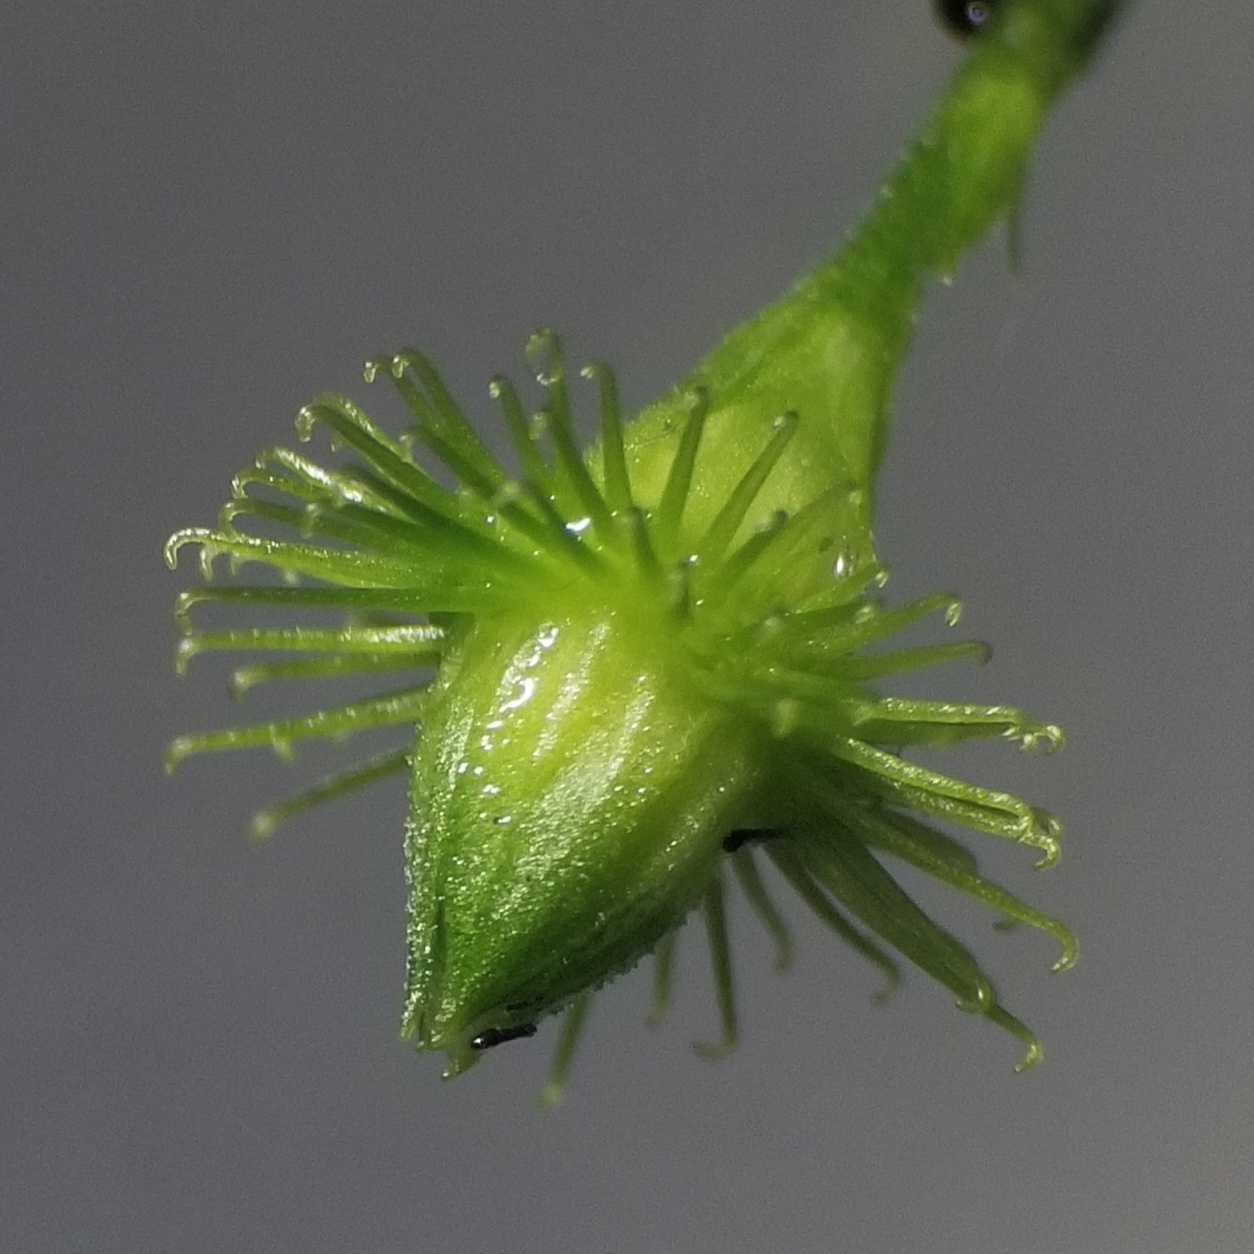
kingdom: Plantae
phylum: Tracheophyta
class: Magnoliopsida
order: Rosales
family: Rosaceae
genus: Agrimonia
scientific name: Agrimonia gryposepala
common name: Common agrimony
